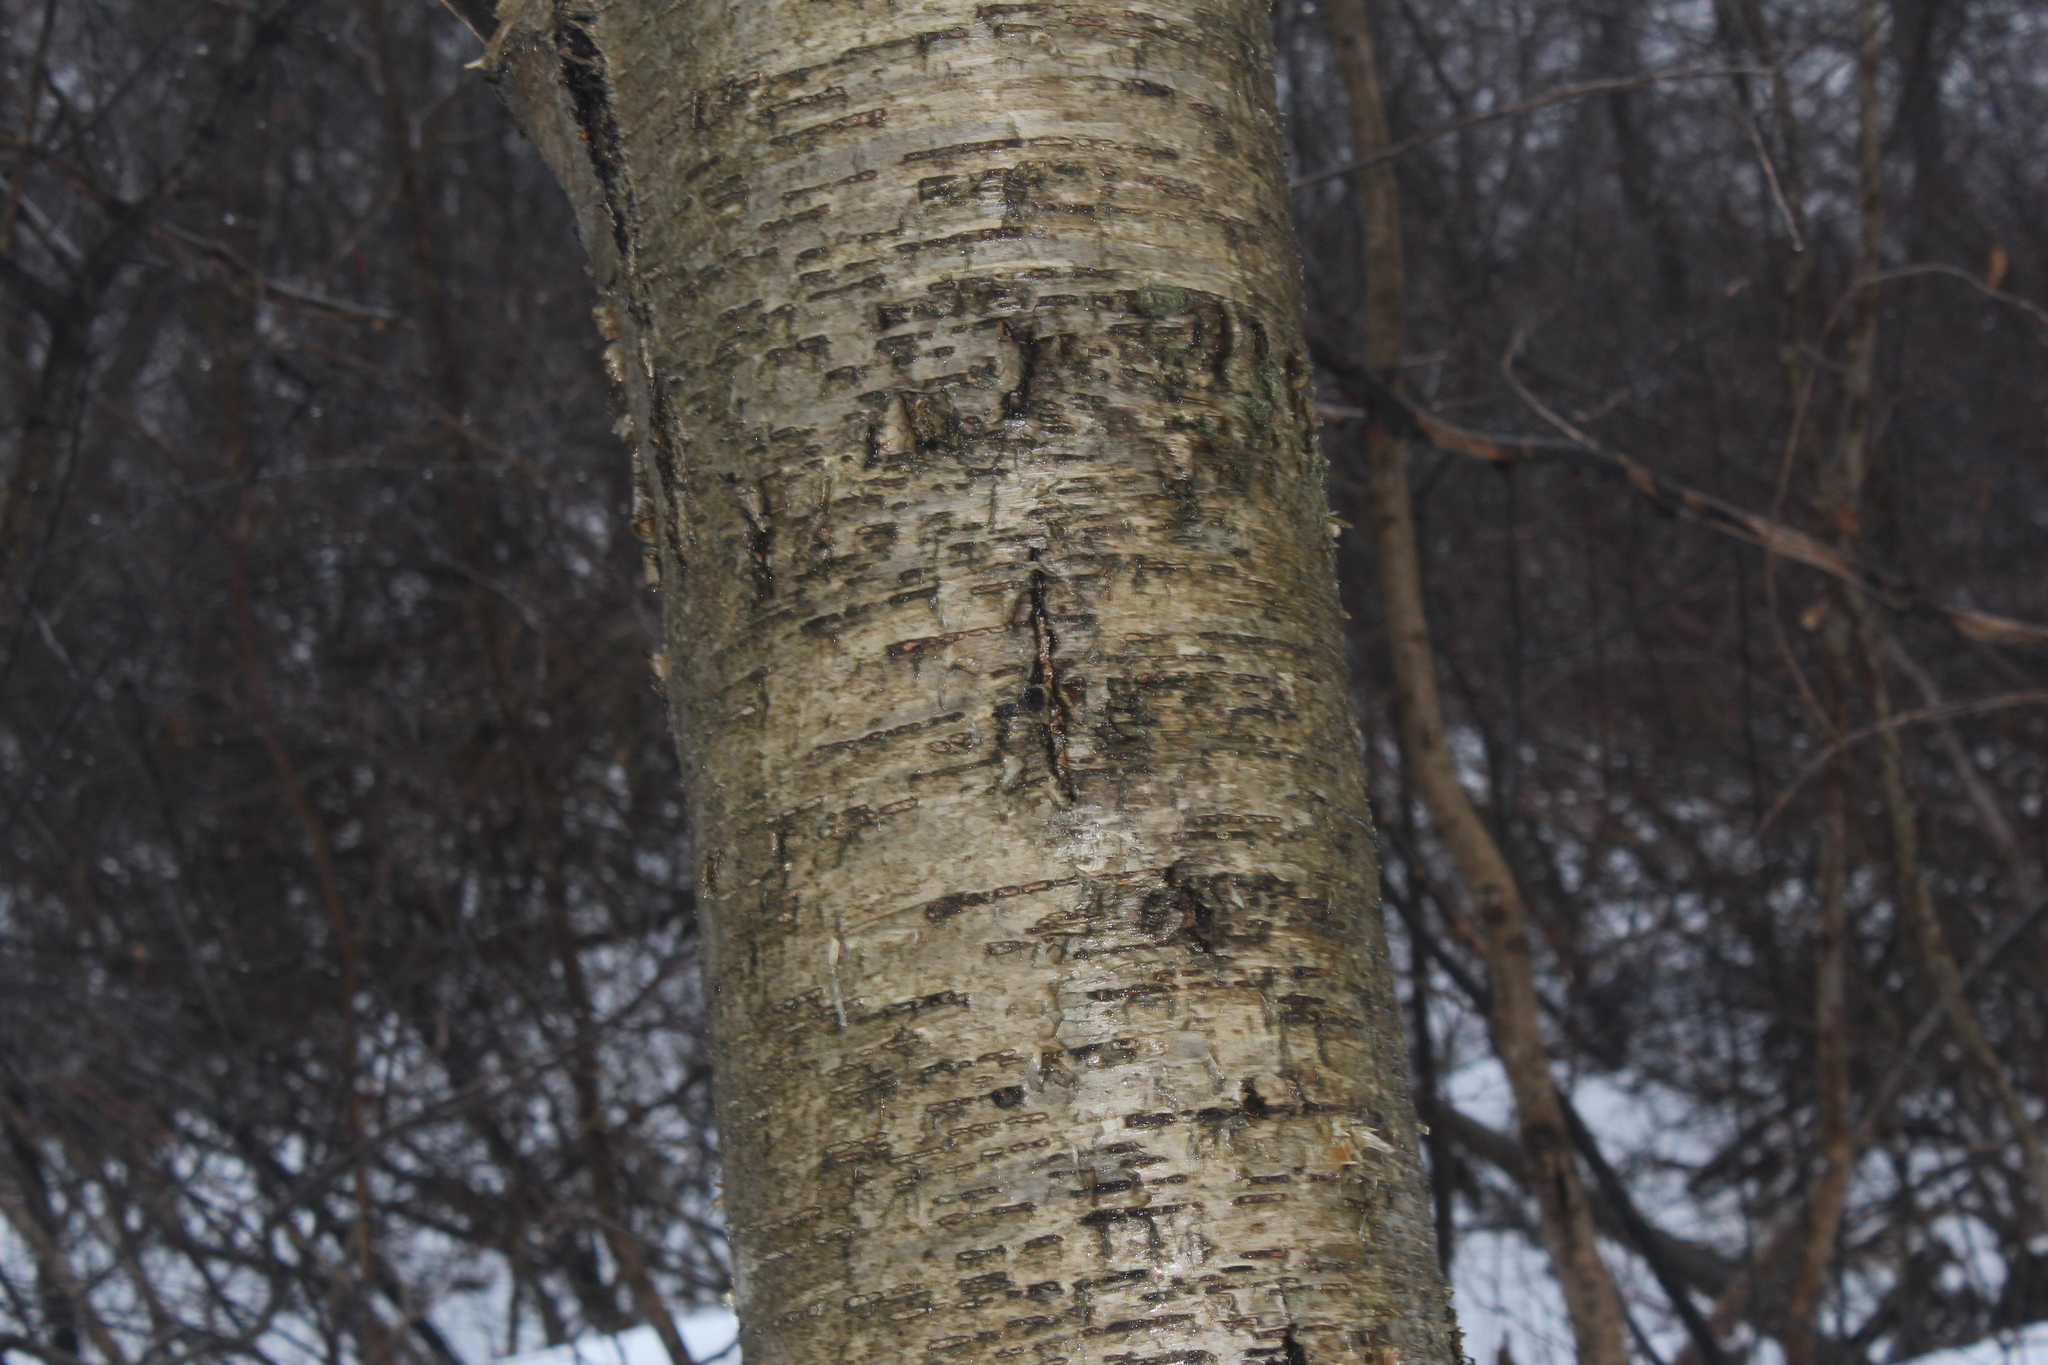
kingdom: Plantae
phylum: Tracheophyta
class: Magnoliopsida
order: Fagales
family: Betulaceae
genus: Betula
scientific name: Betula alleghaniensis
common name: Yellow birch
